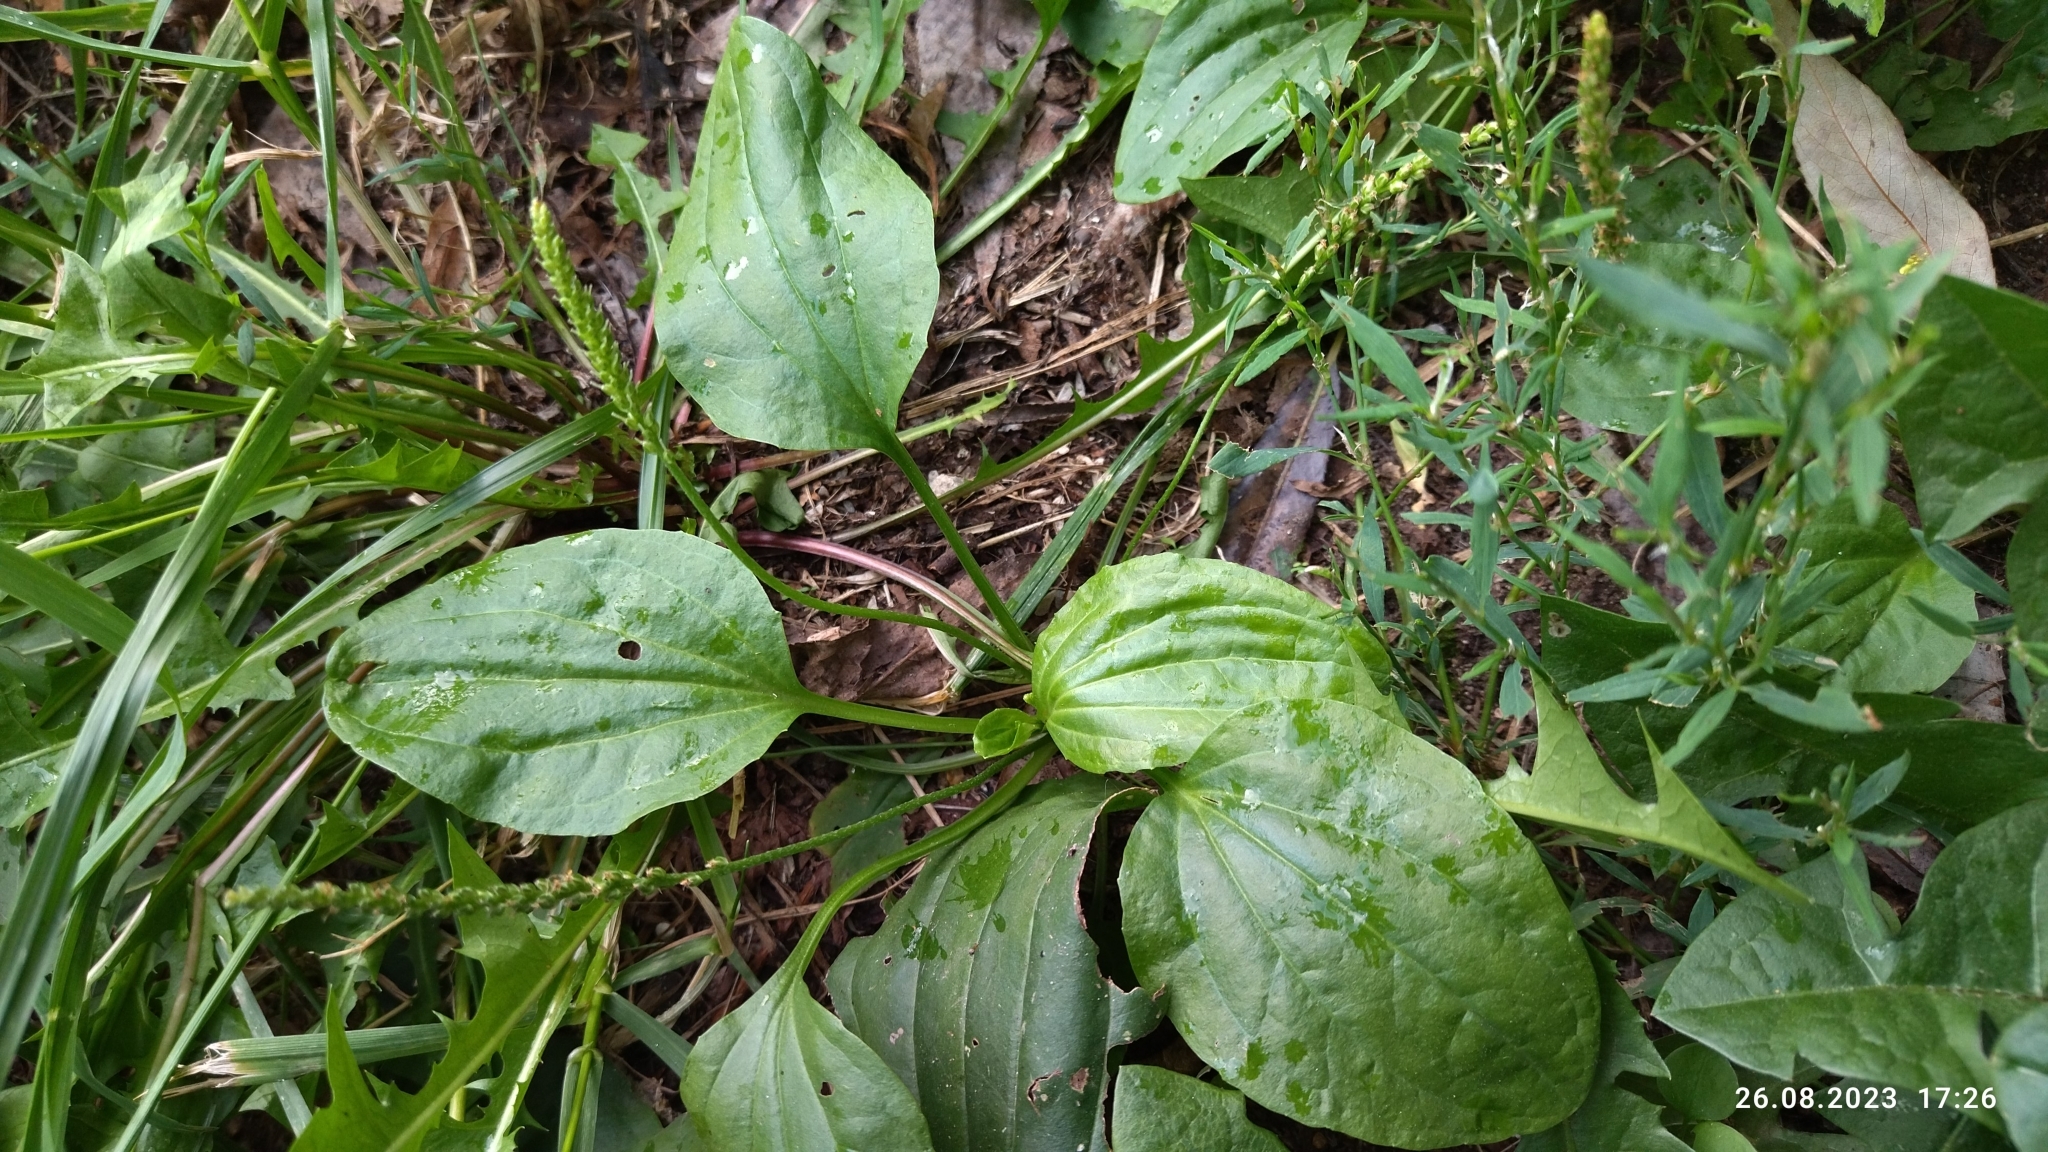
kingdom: Plantae
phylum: Tracheophyta
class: Magnoliopsida
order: Lamiales
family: Plantaginaceae
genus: Plantago
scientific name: Plantago major
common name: Common plantain
